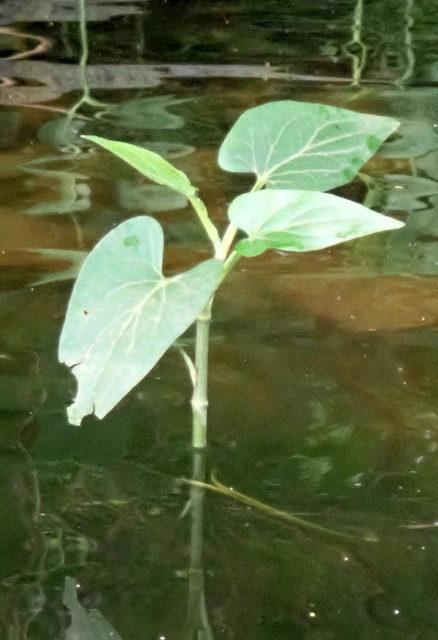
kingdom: Plantae
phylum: Tracheophyta
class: Magnoliopsida
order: Piperales
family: Saururaceae
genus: Saururus
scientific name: Saururus cernuus
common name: Lizard's-tail
